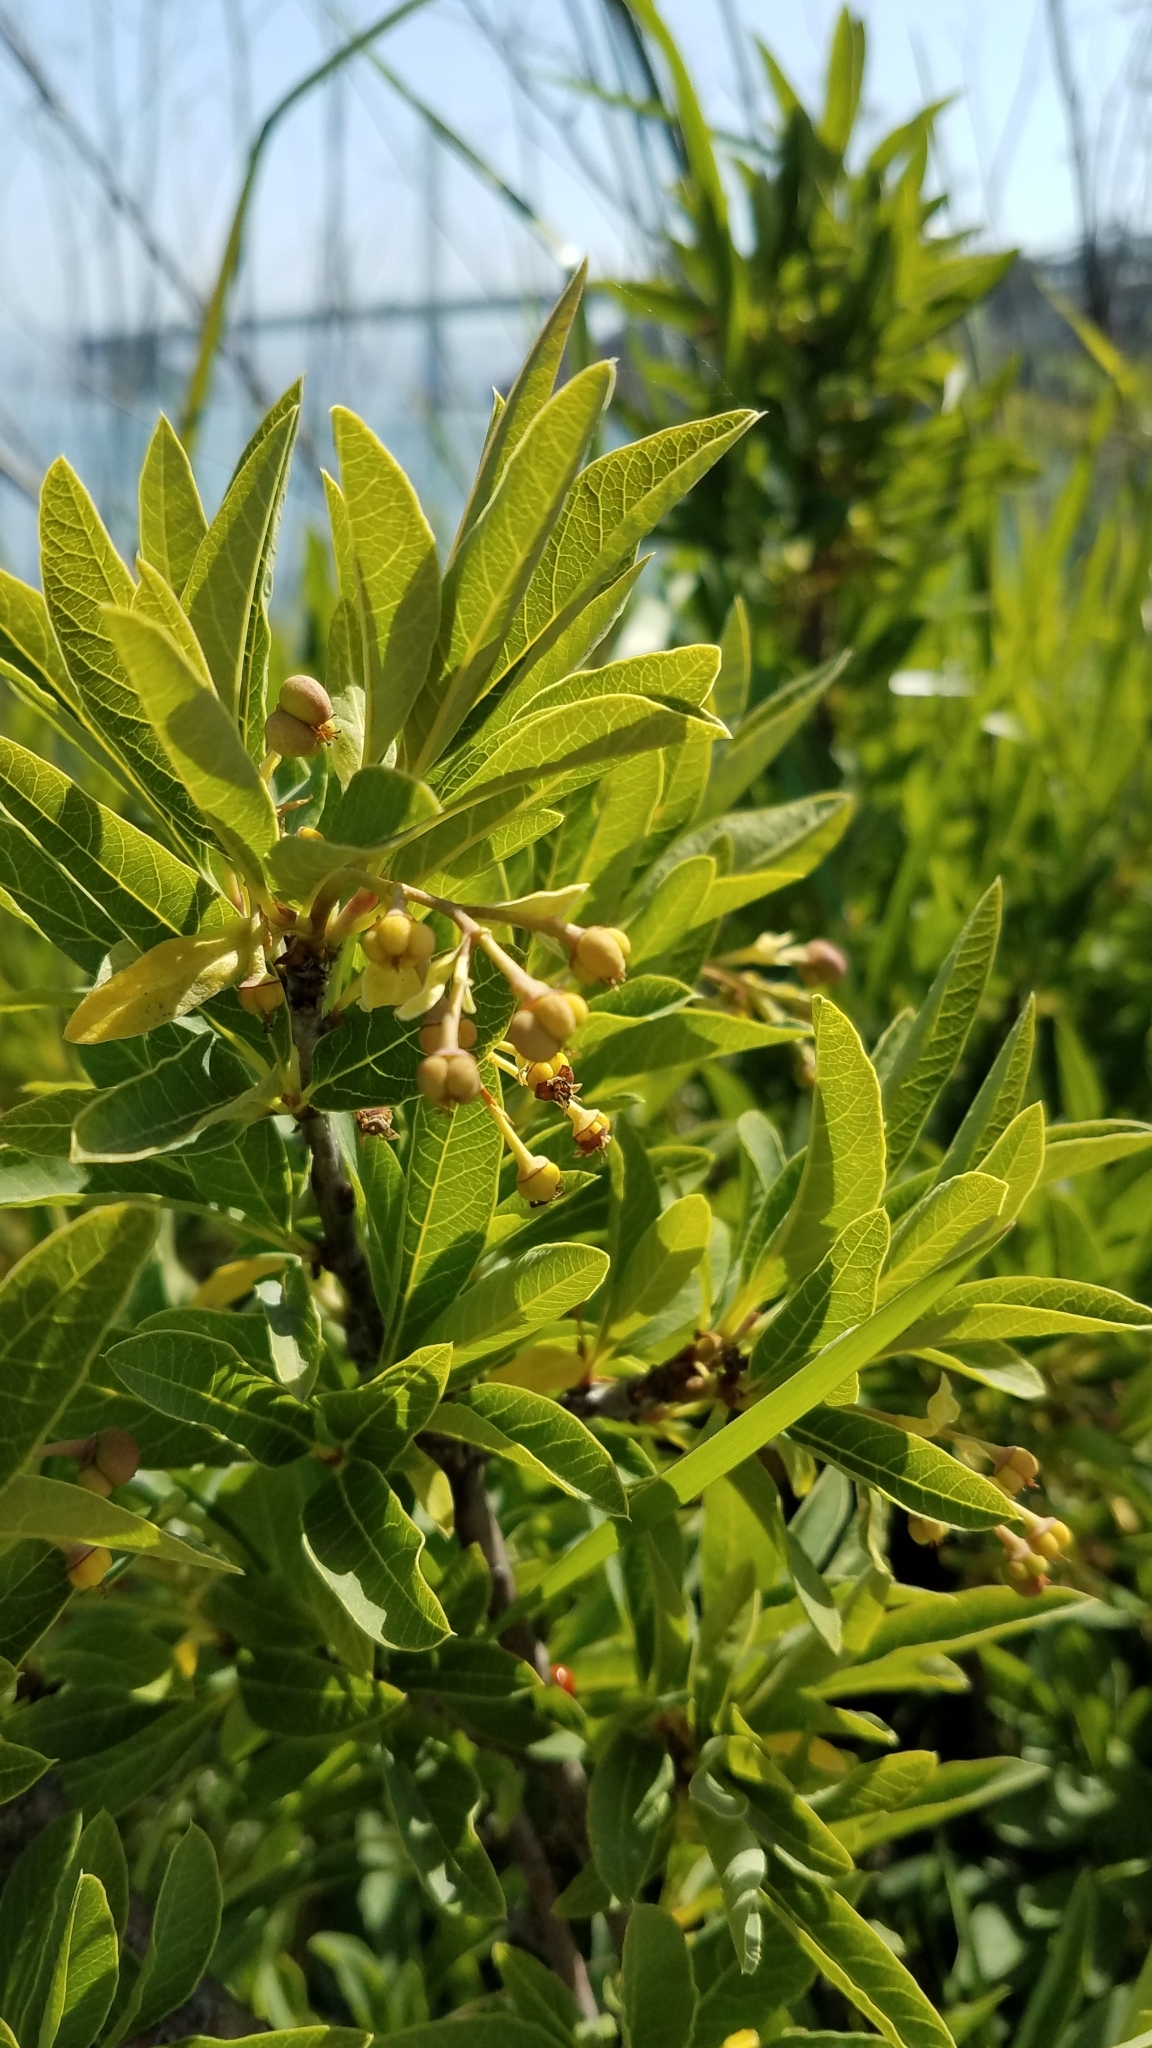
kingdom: Plantae
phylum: Tracheophyta
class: Magnoliopsida
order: Rosales
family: Rosaceae
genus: Oemleria
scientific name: Oemleria cerasiformis
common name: Osoberry
